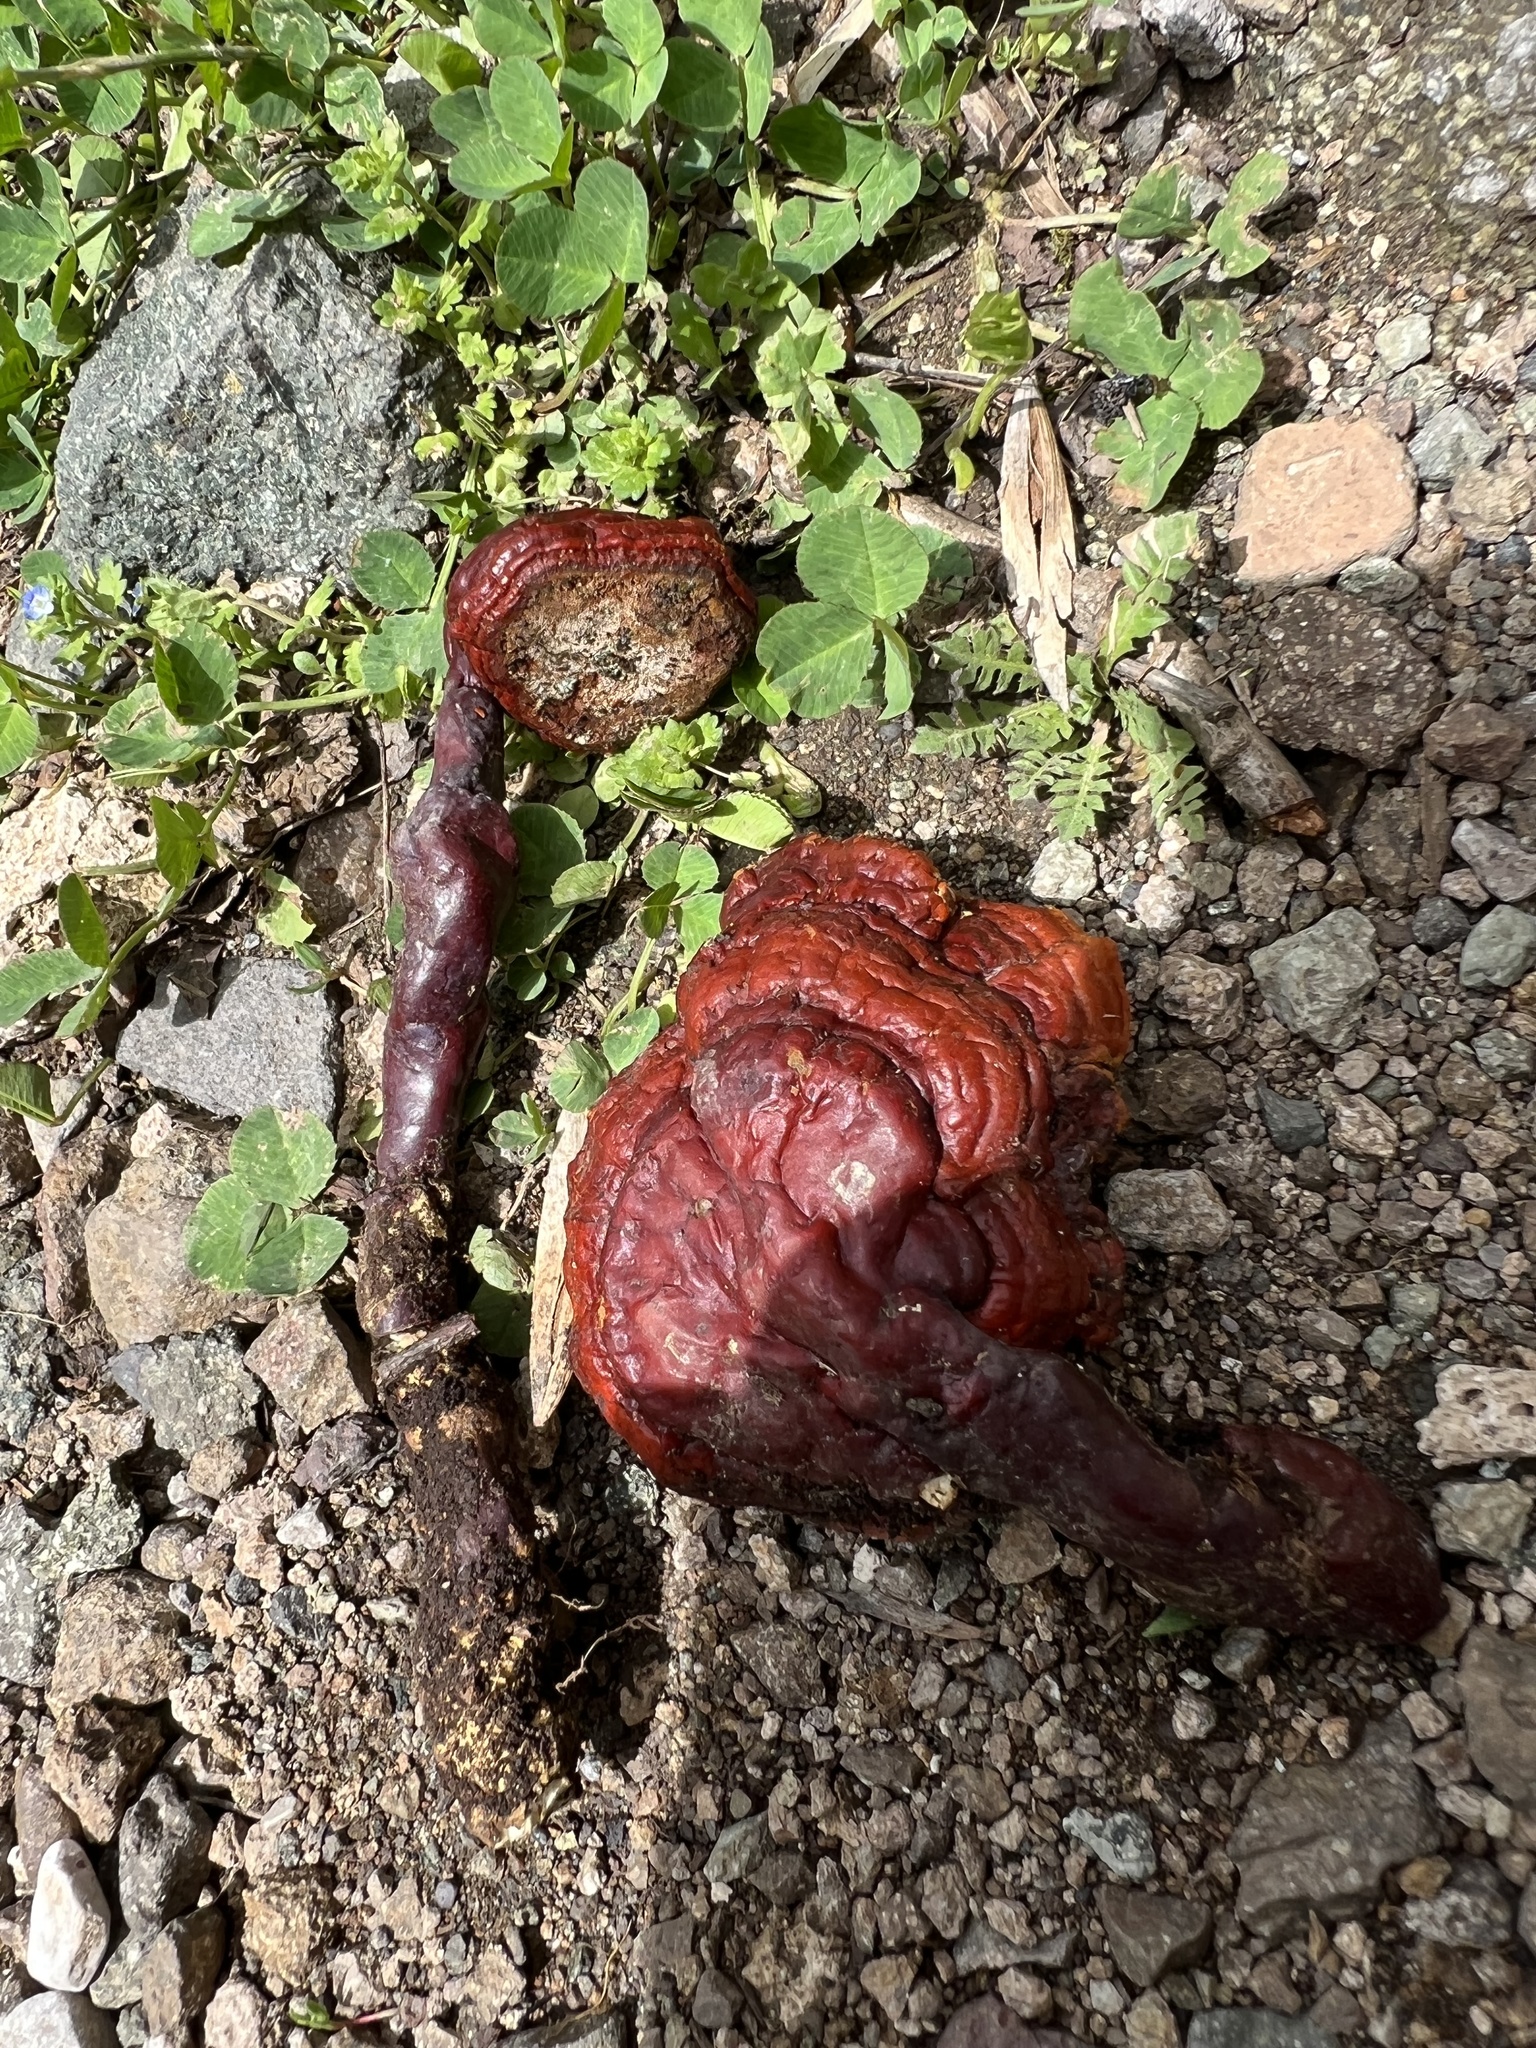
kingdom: Fungi
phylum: Basidiomycota
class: Agaricomycetes
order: Polyporales
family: Polyporaceae
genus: Ganoderma
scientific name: Ganoderma lucidum
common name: Lacquered bracket
